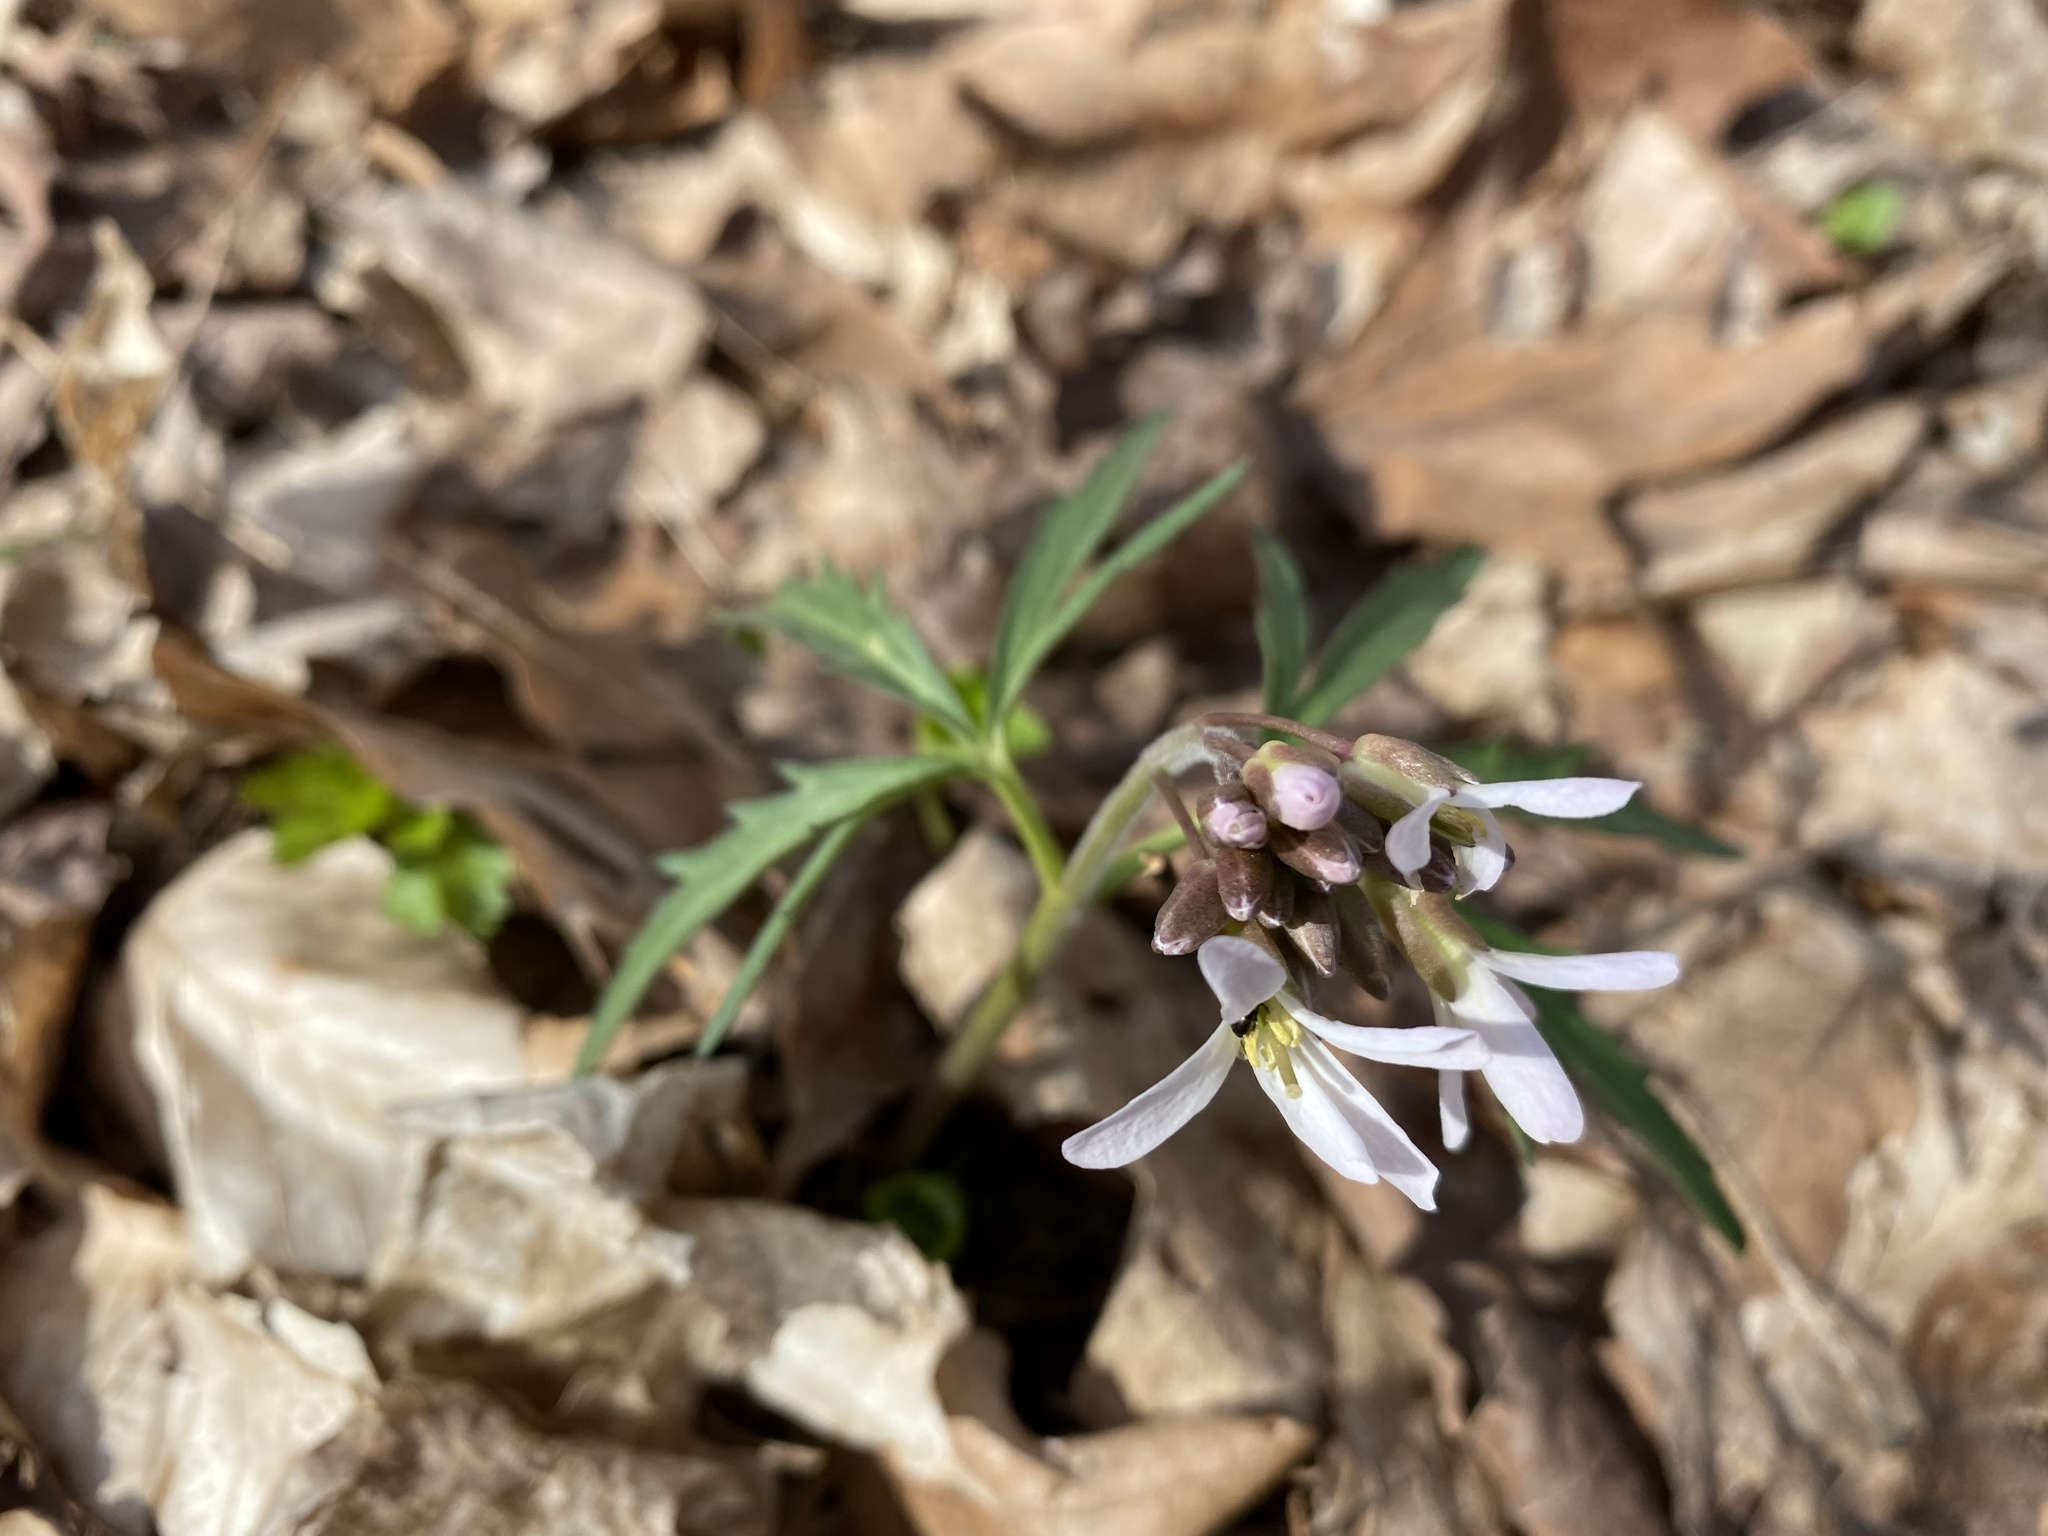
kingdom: Plantae
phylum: Tracheophyta
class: Magnoliopsida
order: Brassicales
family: Brassicaceae
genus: Cardamine
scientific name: Cardamine concatenata
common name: Cut-leaf toothcup
